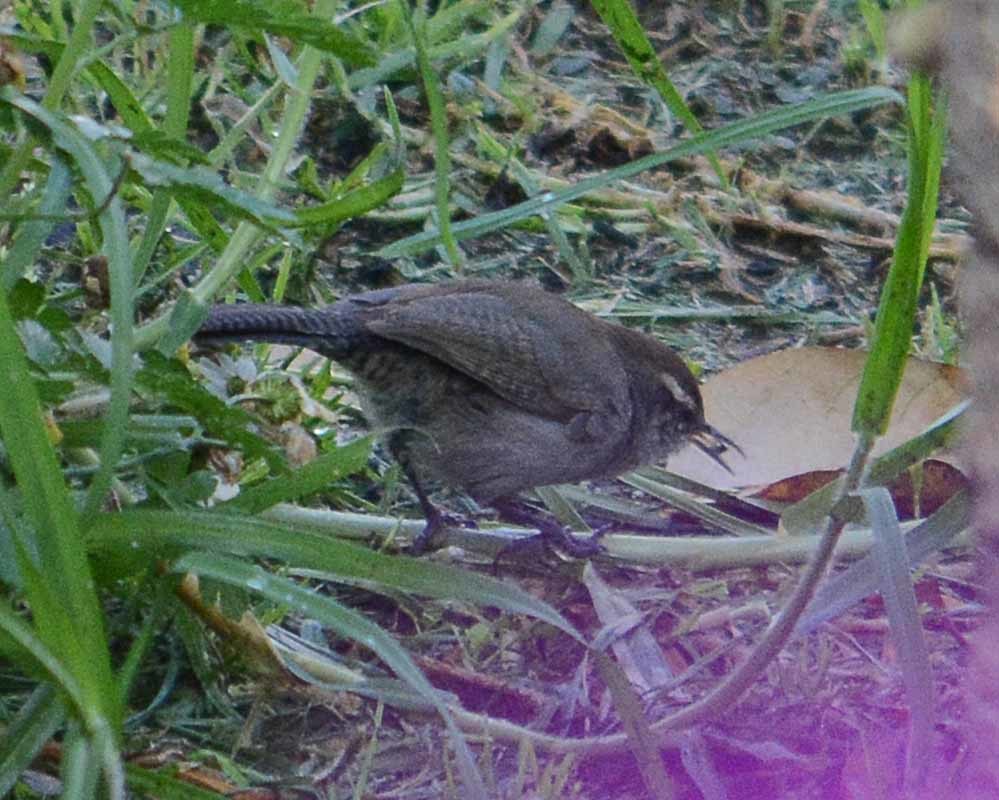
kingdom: Animalia
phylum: Chordata
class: Aves
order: Passeriformes
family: Troglodytidae
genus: Thryomanes
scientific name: Thryomanes bewickii
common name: Bewick's wren
